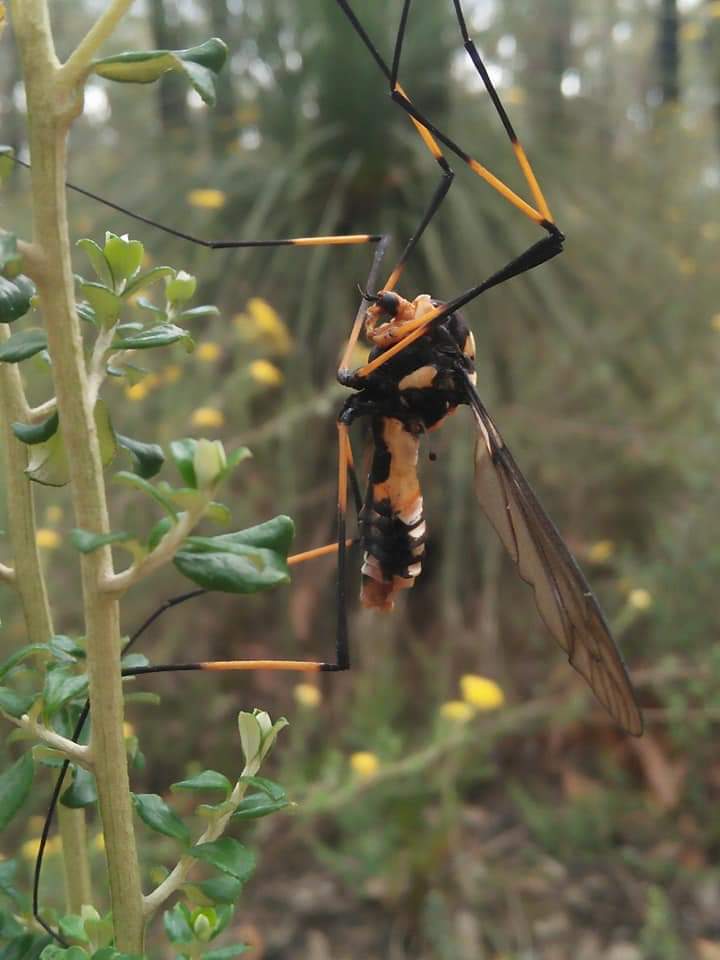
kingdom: Animalia
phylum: Arthropoda
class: Insecta
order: Diptera
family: Tipulidae
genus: Leptotarsus
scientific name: Leptotarsus imperatorius
